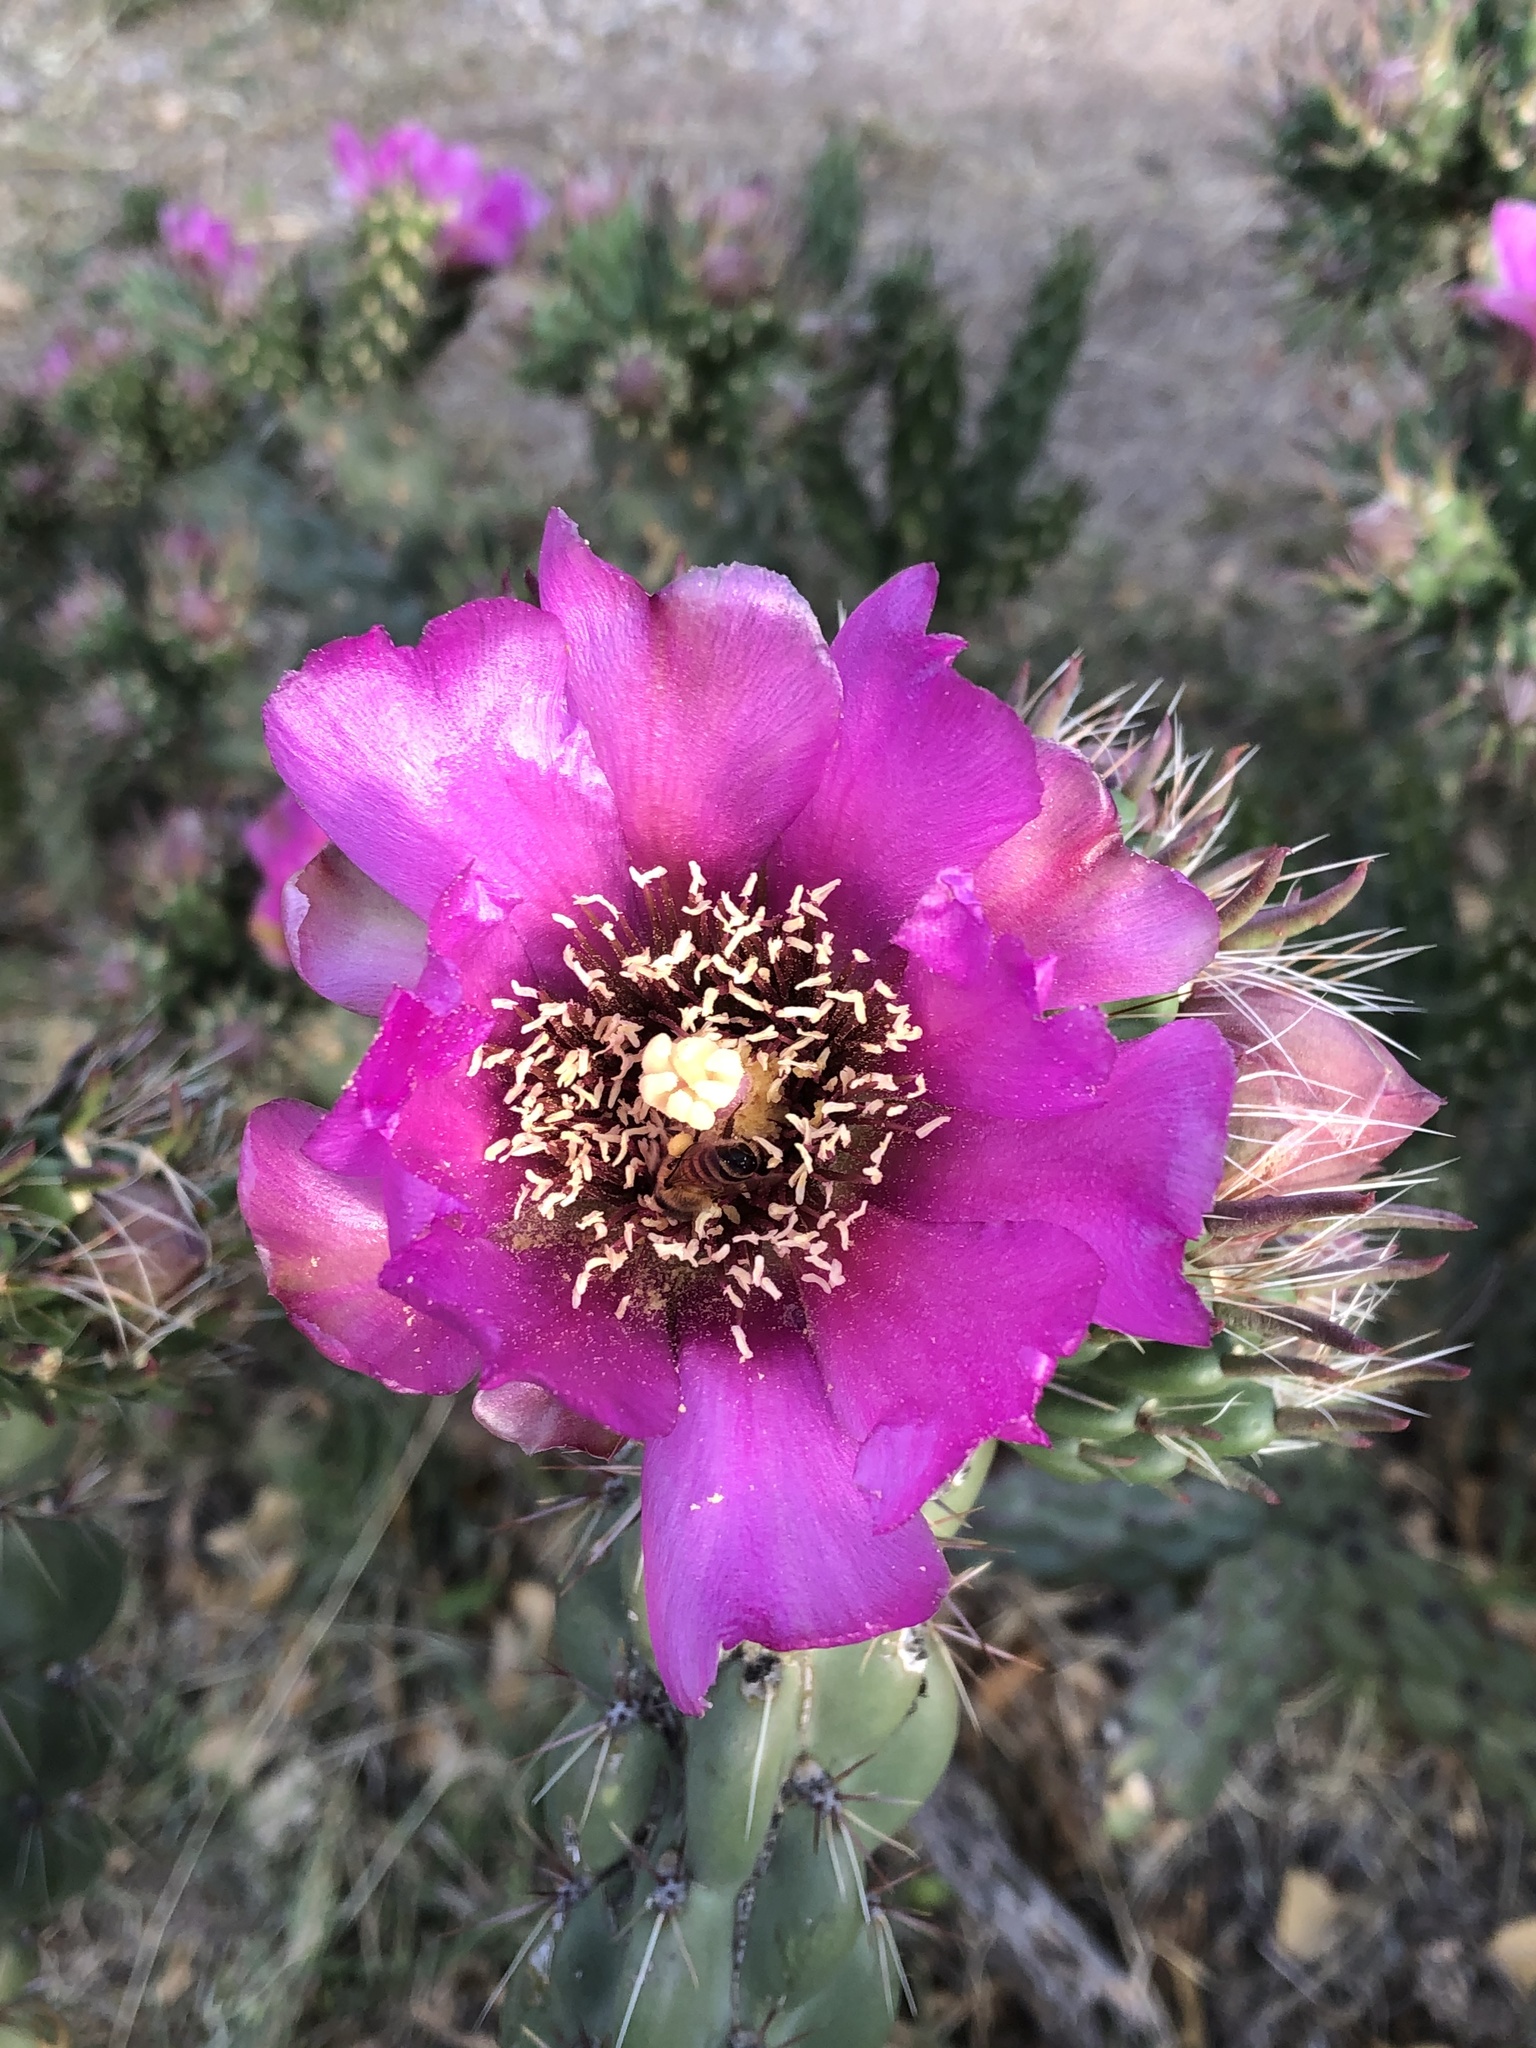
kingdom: Plantae
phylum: Tracheophyta
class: Magnoliopsida
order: Caryophyllales
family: Cactaceae
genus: Cylindropuntia
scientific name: Cylindropuntia imbricata
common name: Candelabrum cactus
